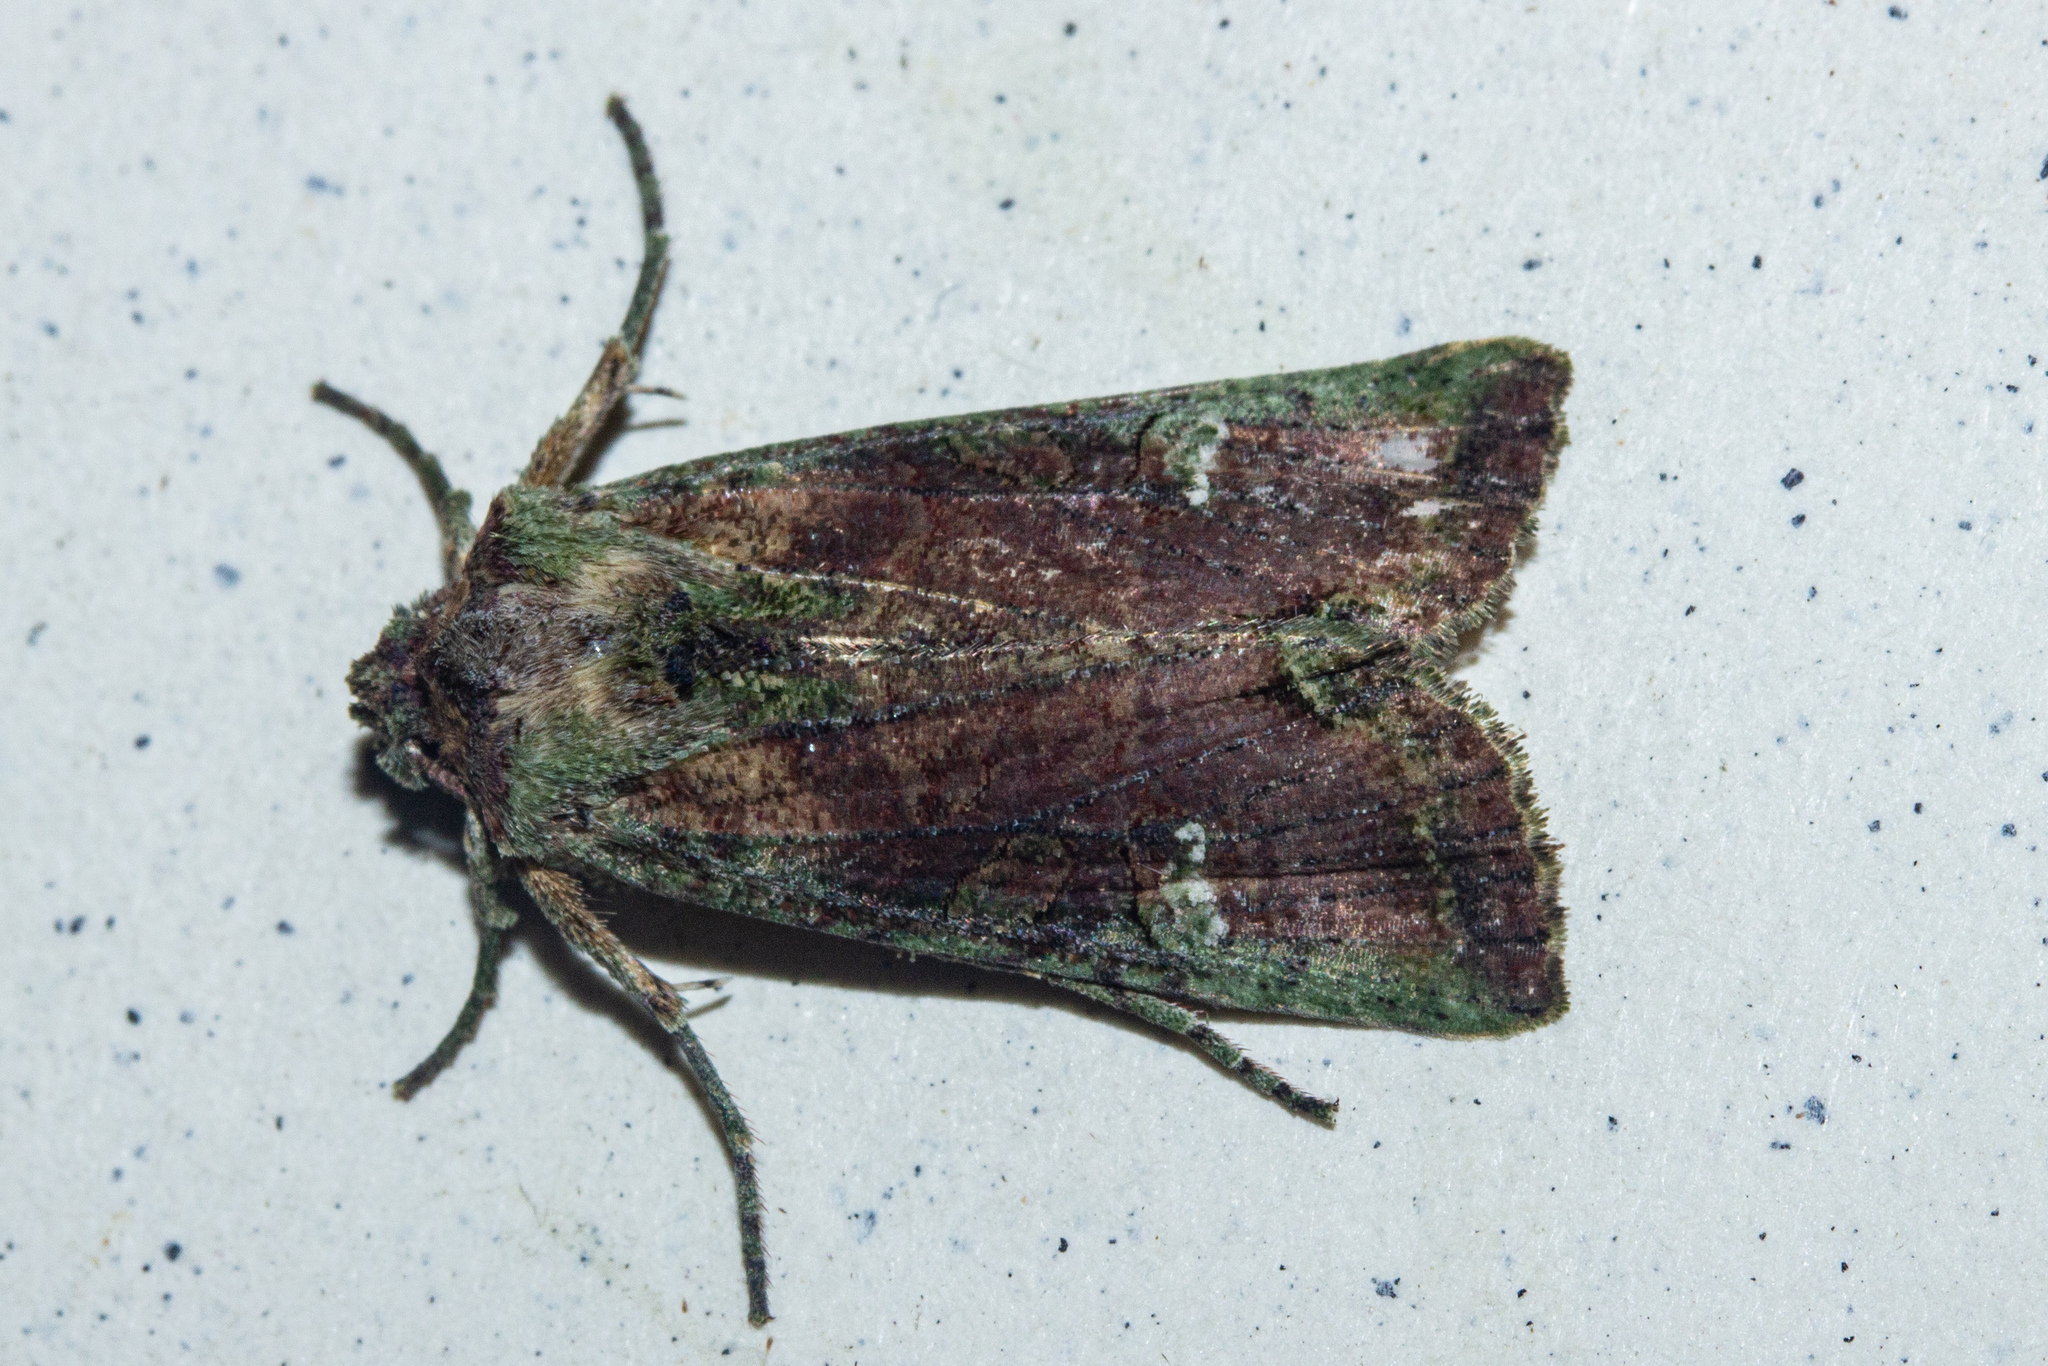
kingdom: Animalia
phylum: Arthropoda
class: Insecta
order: Lepidoptera
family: Noctuidae
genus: Meterana
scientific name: Meterana levis
